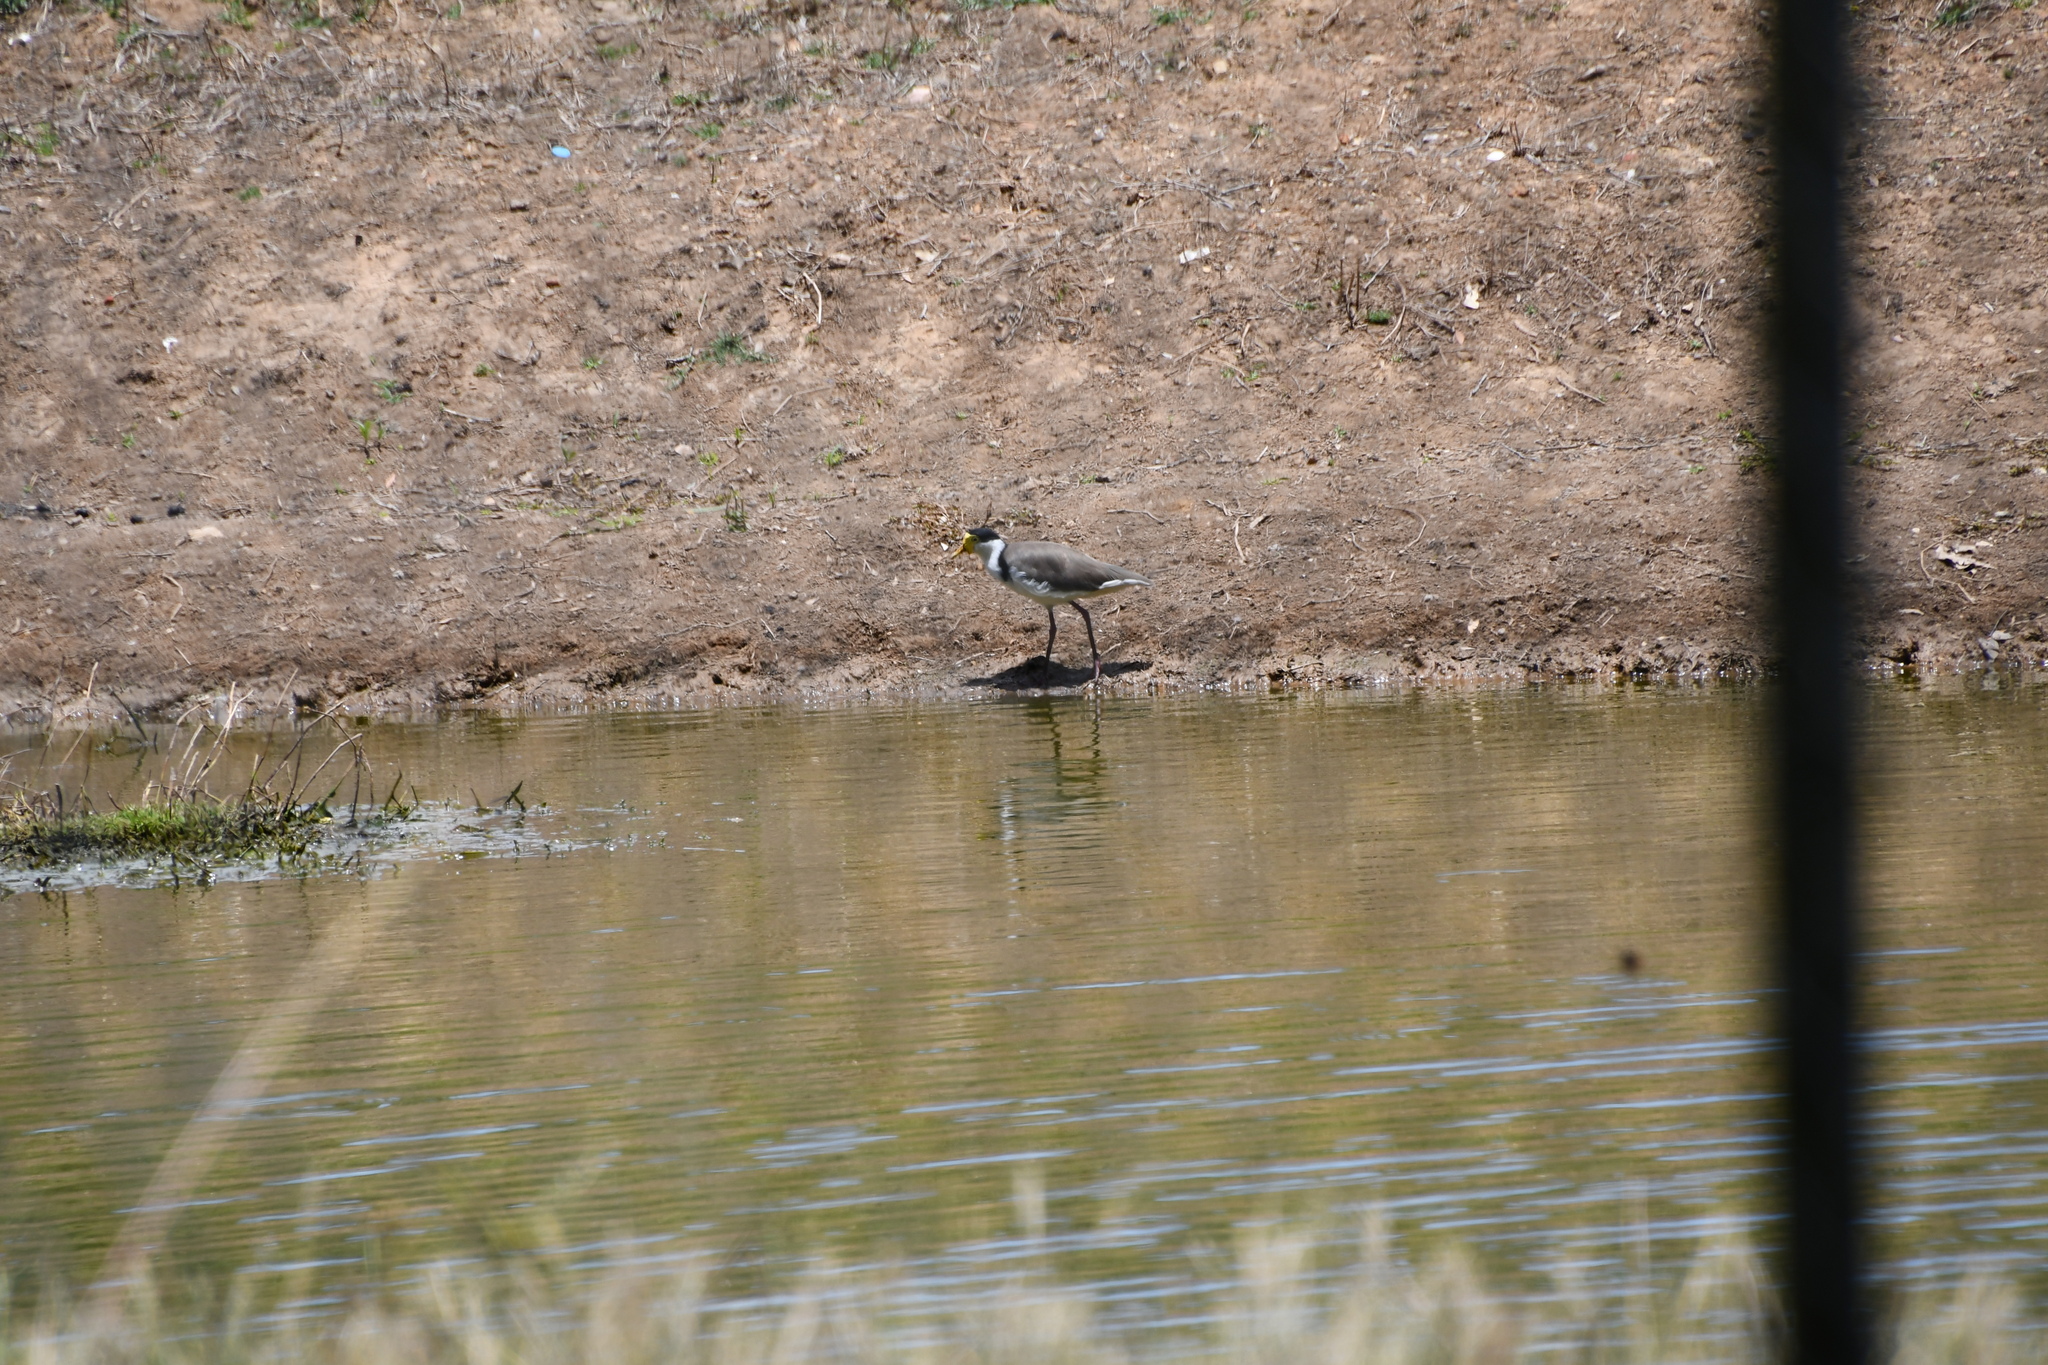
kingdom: Animalia
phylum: Chordata
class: Aves
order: Charadriiformes
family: Charadriidae
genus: Vanellus
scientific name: Vanellus miles
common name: Masked lapwing
